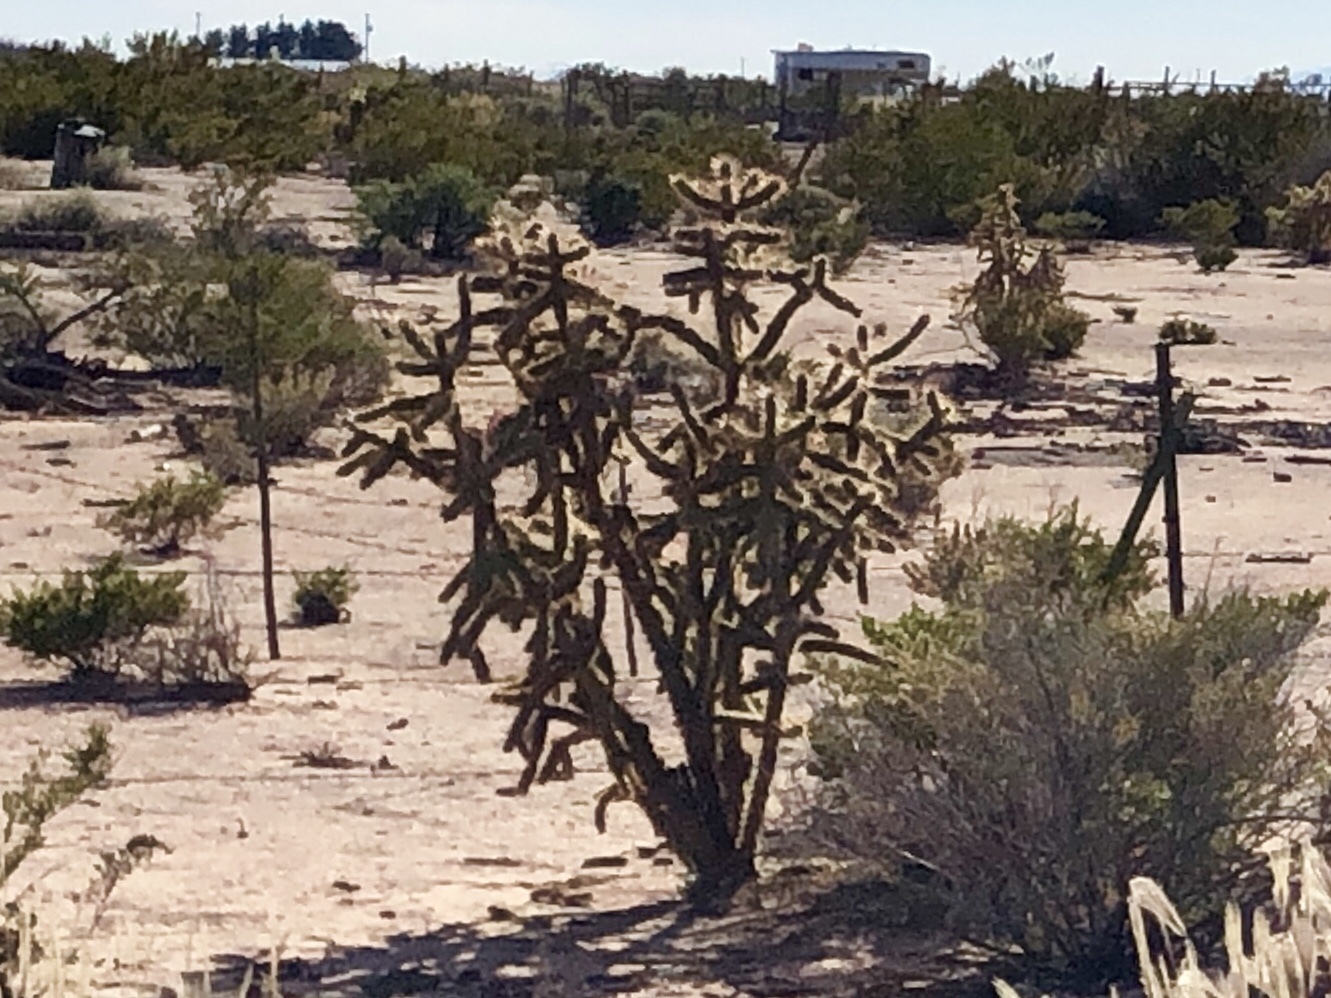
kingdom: Plantae
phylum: Tracheophyta
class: Magnoliopsida
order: Caryophyllales
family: Cactaceae
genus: Cylindropuntia
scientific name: Cylindropuntia imbricata
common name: Candelabrum cactus
